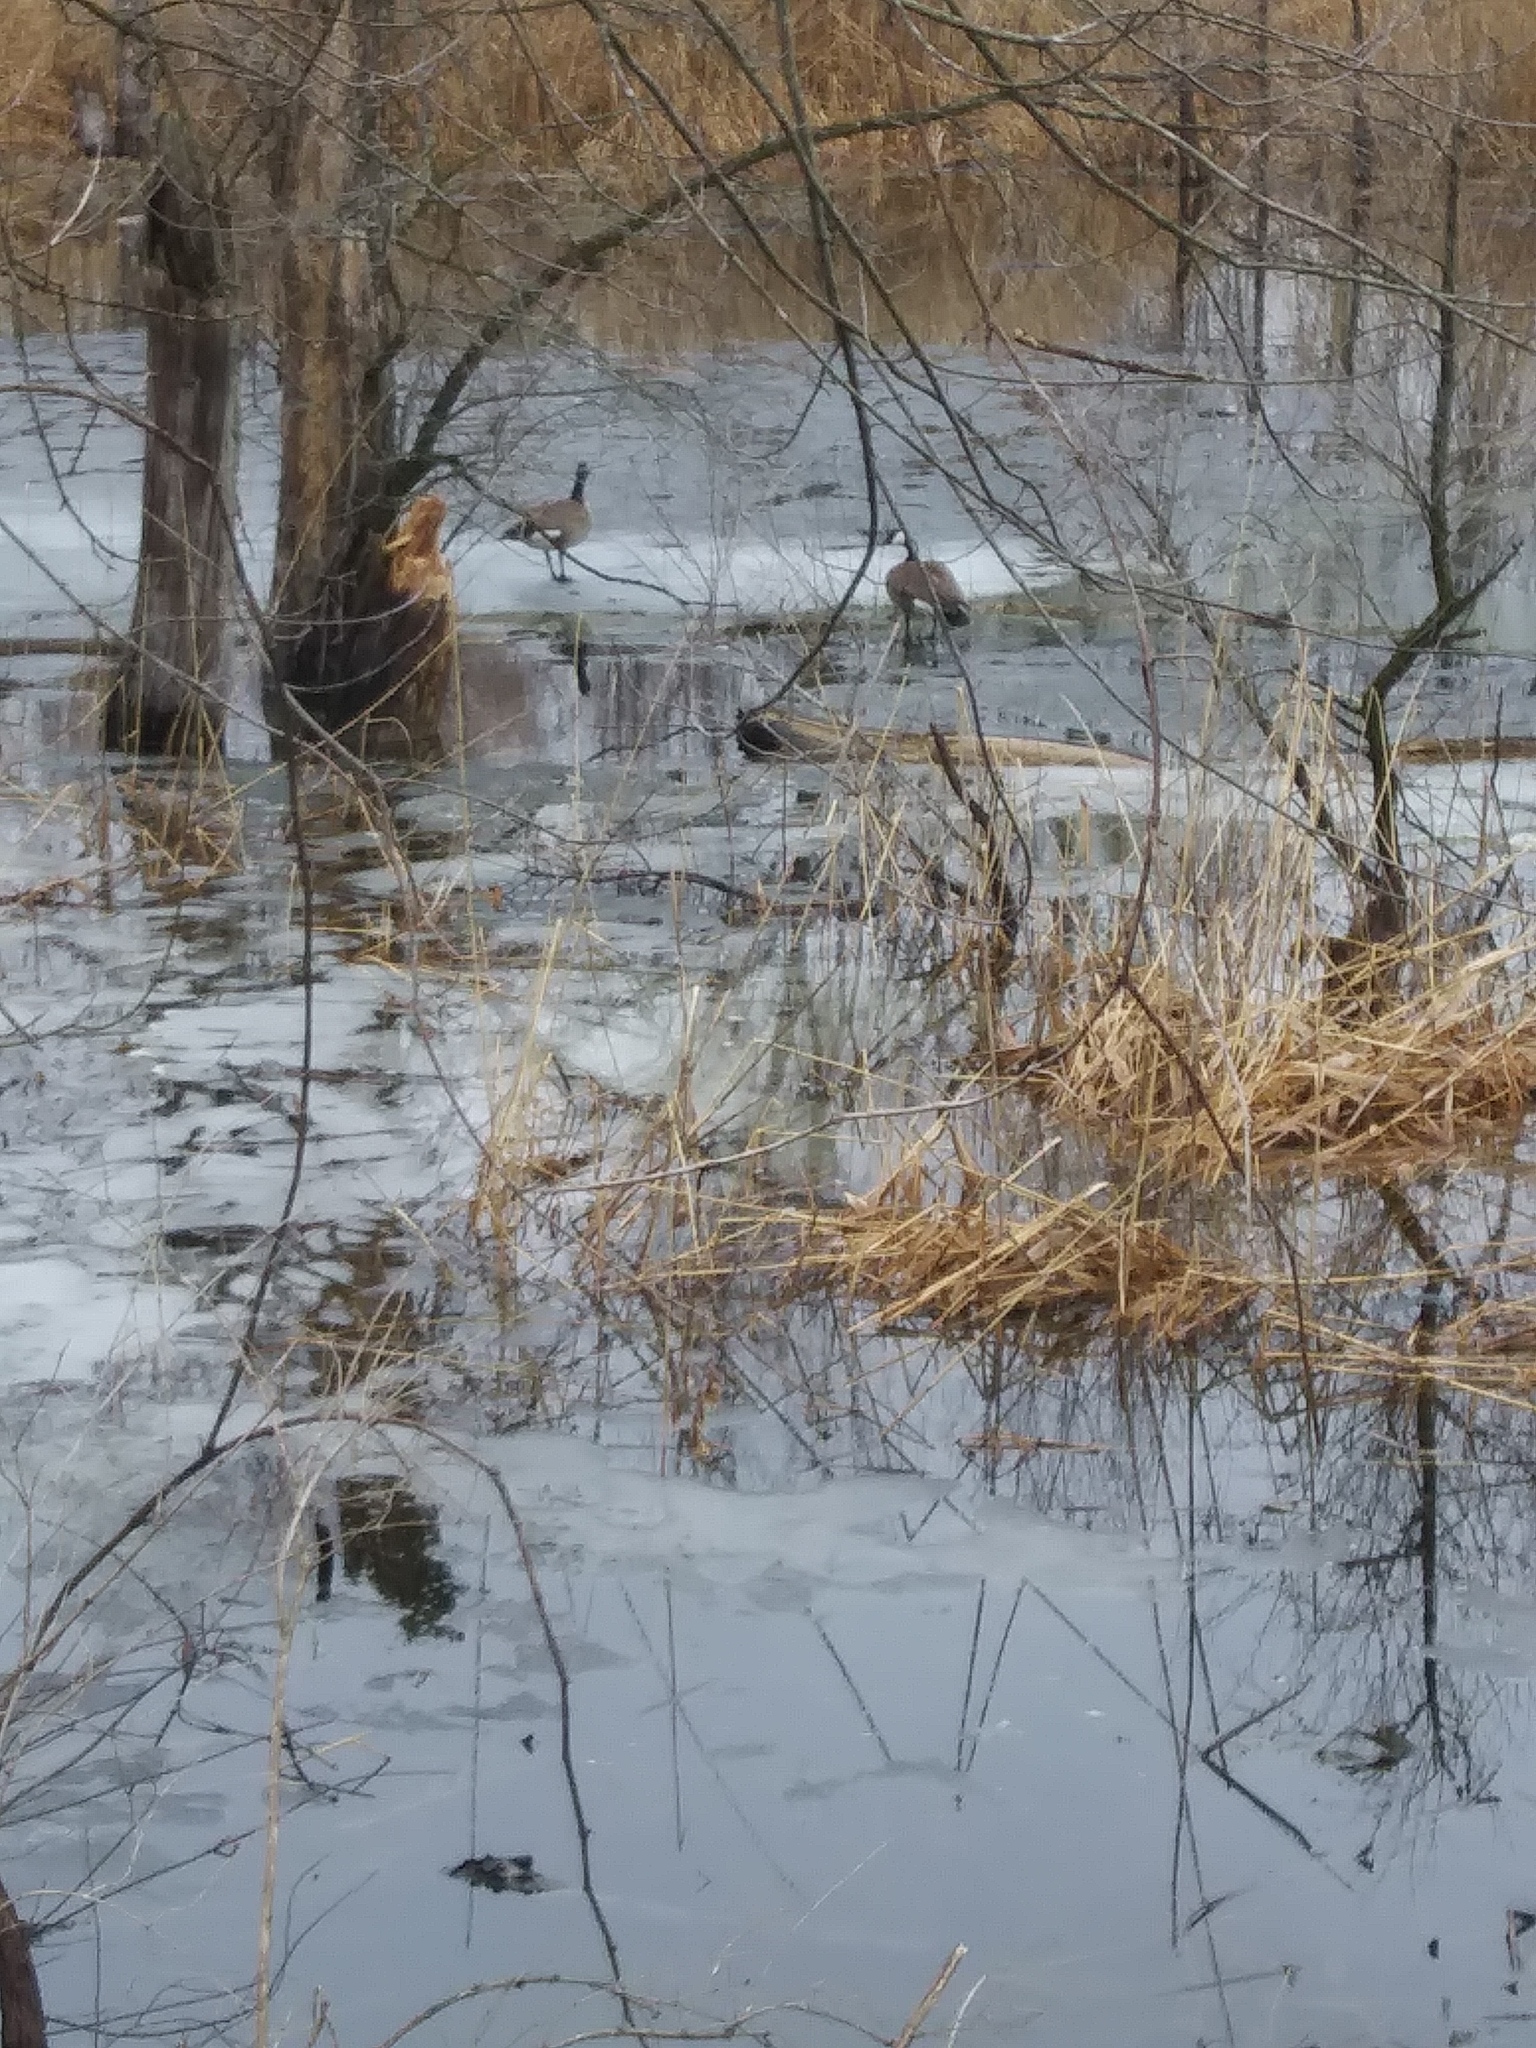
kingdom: Animalia
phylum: Chordata
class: Aves
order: Anseriformes
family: Anatidae
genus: Branta
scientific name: Branta canadensis
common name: Canada goose
